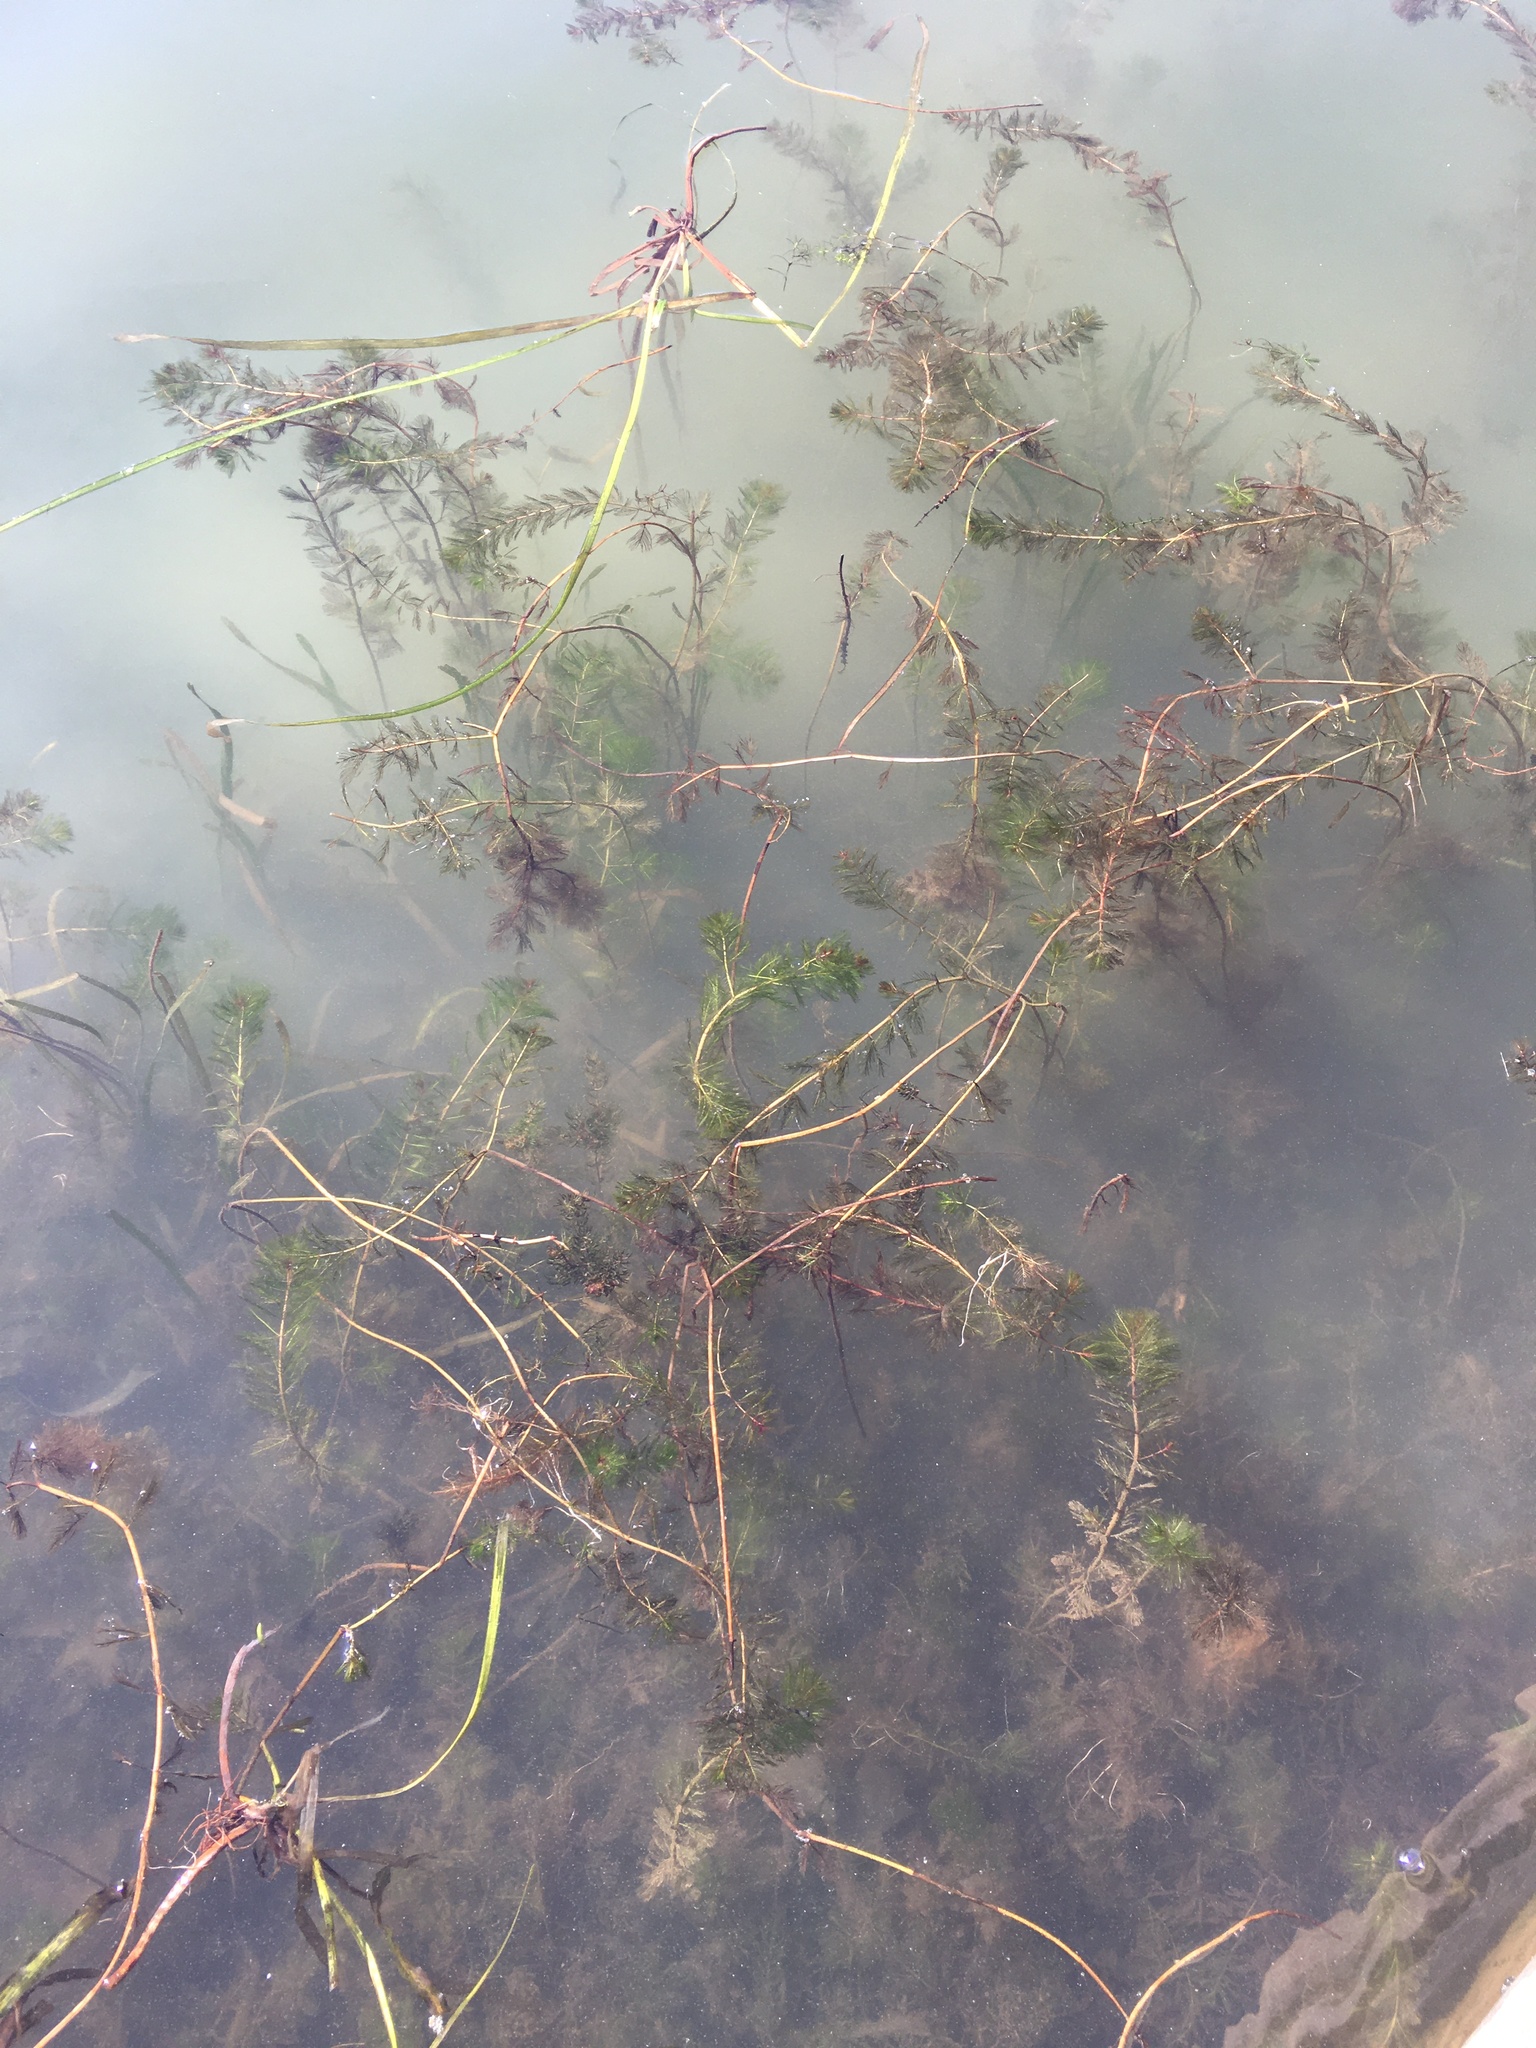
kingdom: Plantae
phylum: Tracheophyta
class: Magnoliopsida
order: Ceratophyllales
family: Ceratophyllaceae
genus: Ceratophyllum
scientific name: Ceratophyllum demersum
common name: Rigid hornwort
